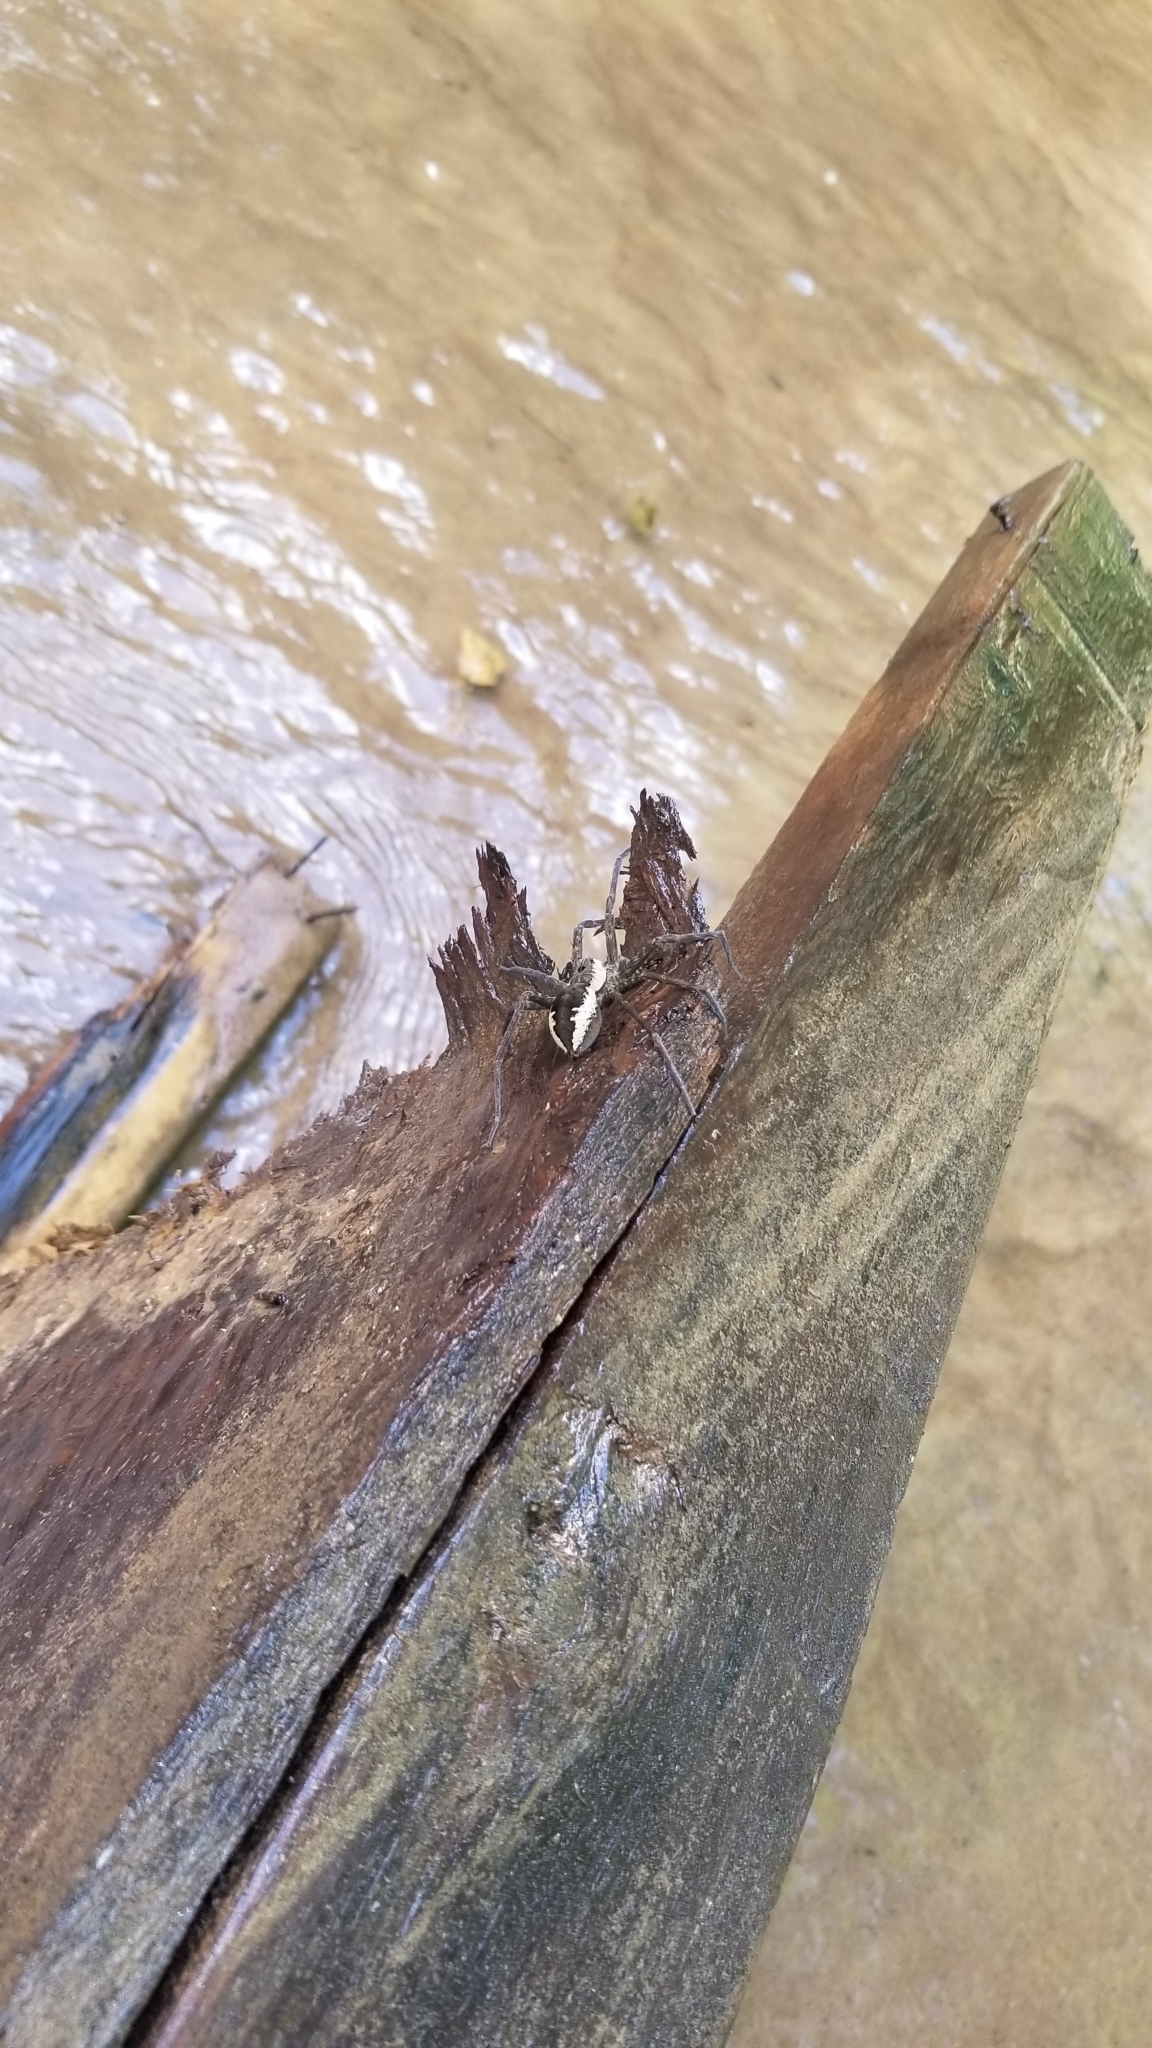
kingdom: Animalia
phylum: Arthropoda
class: Arachnida
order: Araneae
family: Pisauridae
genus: Dolomedes
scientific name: Dolomedes vittatus
